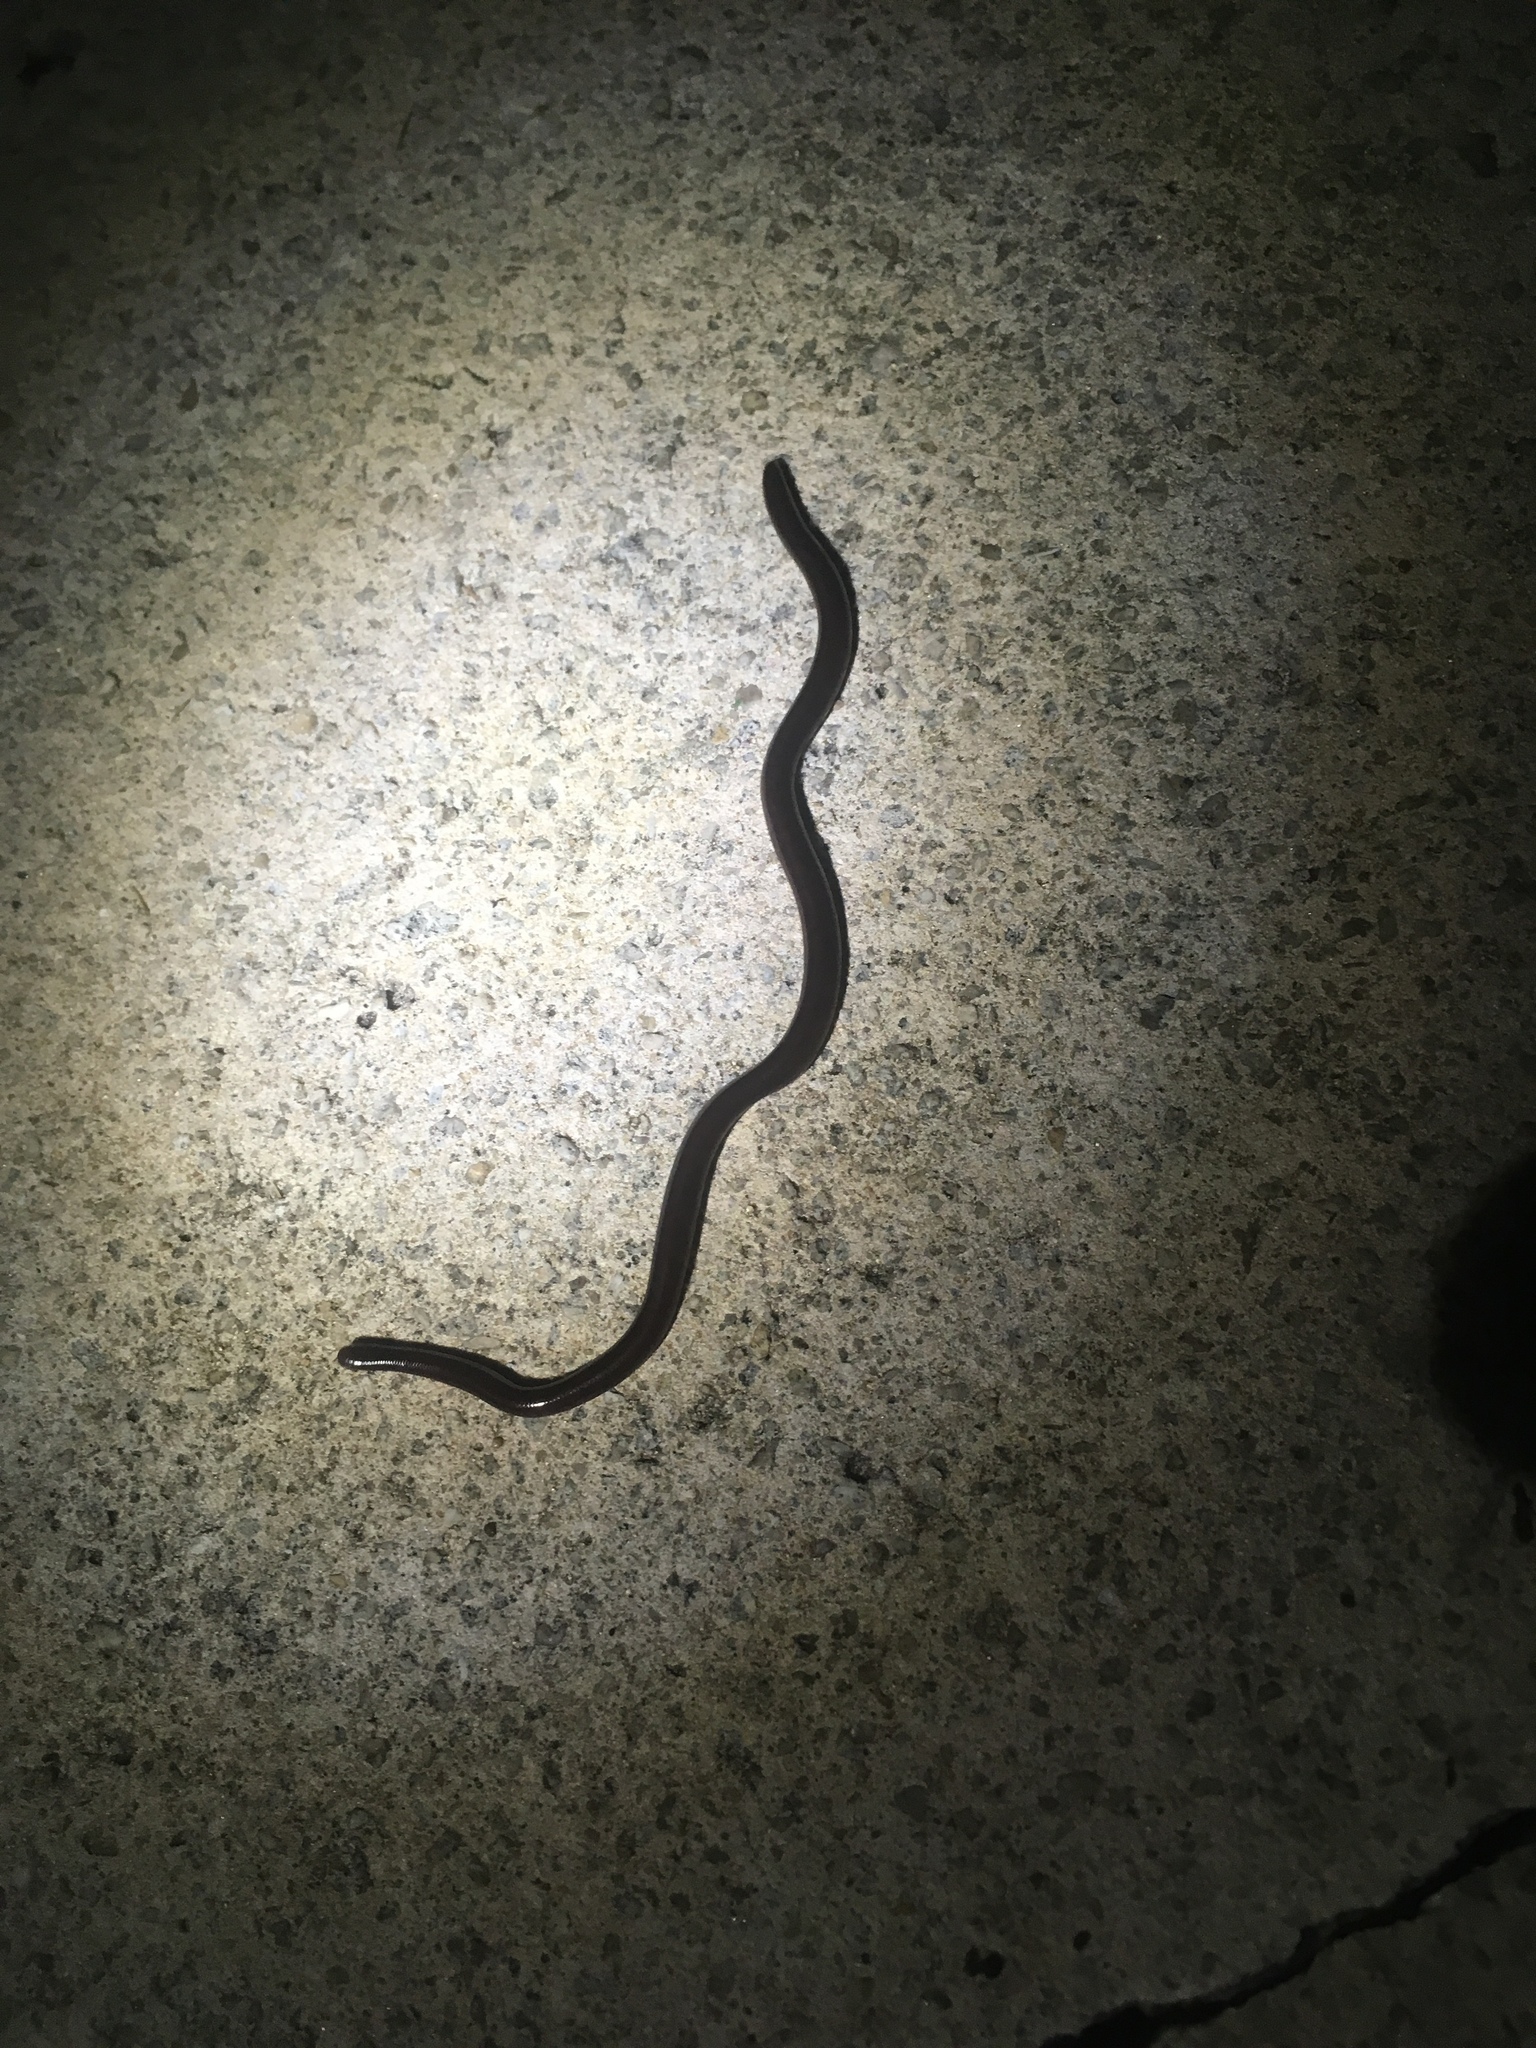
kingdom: Animalia
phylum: Chordata
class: Squamata
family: Typhlopidae
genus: Indotyphlops
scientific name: Indotyphlops braminus
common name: Brahminy blindsnake
